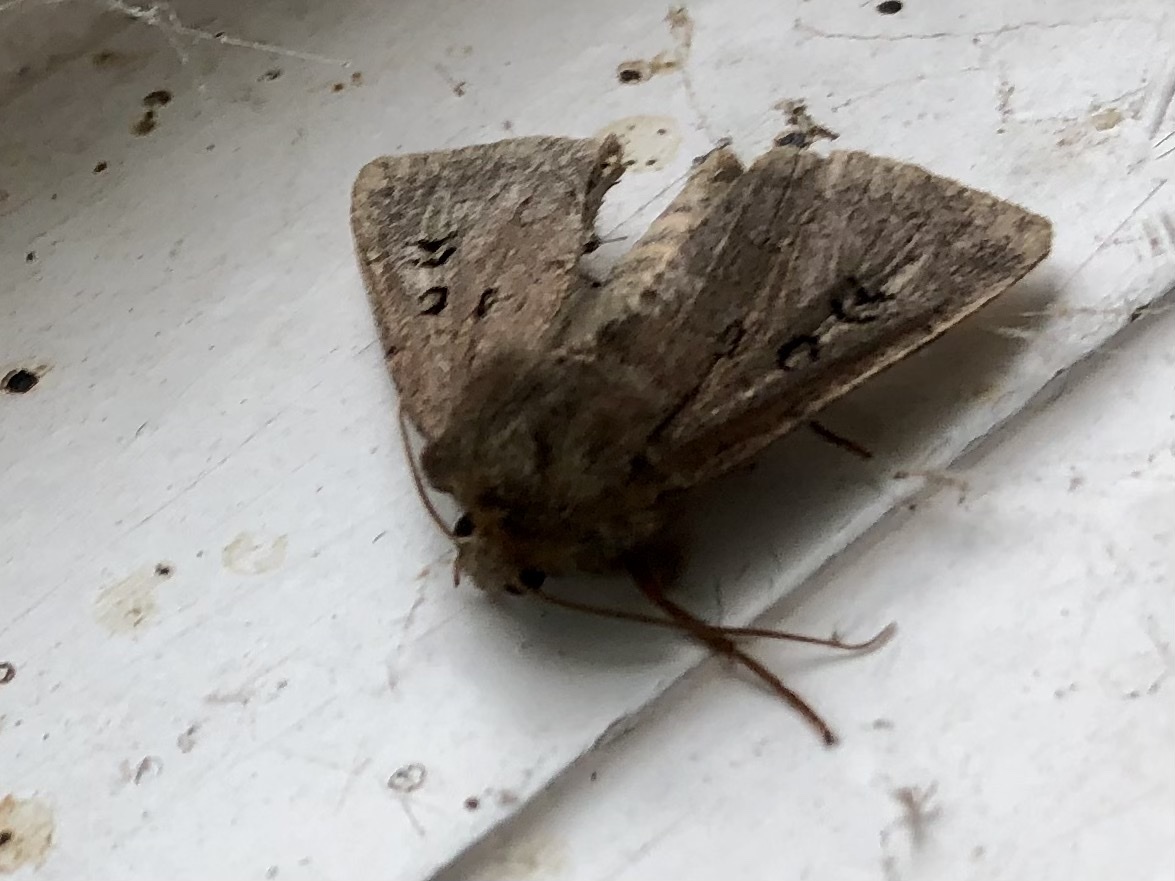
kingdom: Animalia
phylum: Arthropoda
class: Insecta
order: Lepidoptera
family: Noctuidae
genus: Graphiphora
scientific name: Graphiphora augur
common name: Double dart
